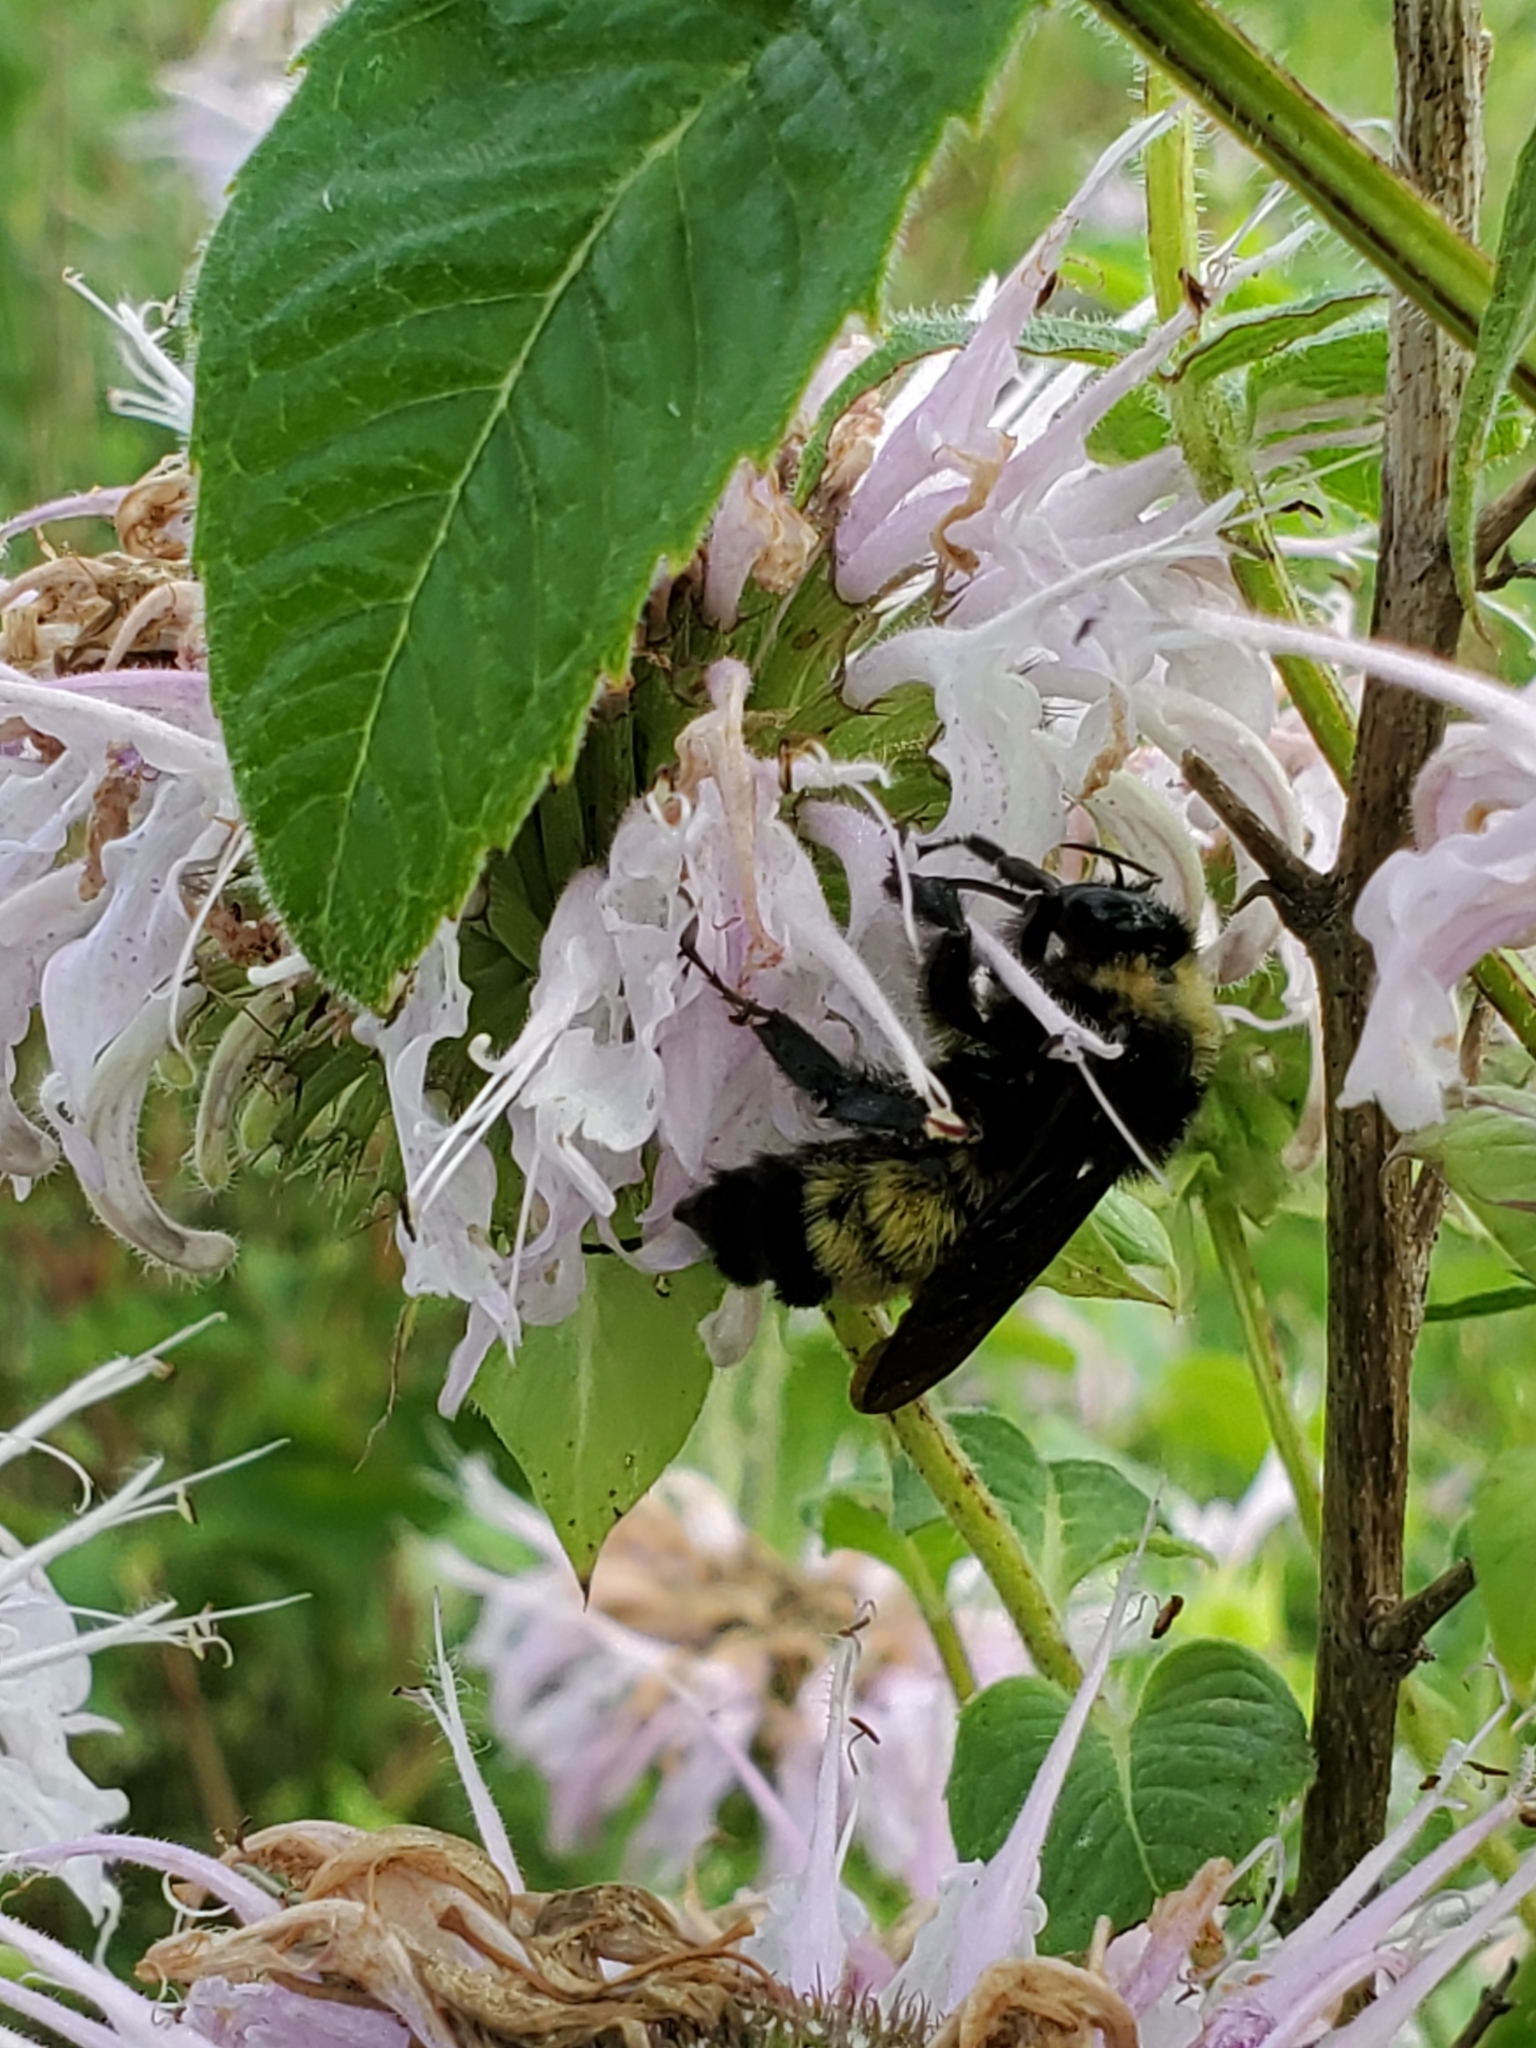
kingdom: Animalia
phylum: Arthropoda
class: Insecta
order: Hymenoptera
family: Apidae
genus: Bombus
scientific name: Bombus pensylvanicus
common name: Bumble bee
